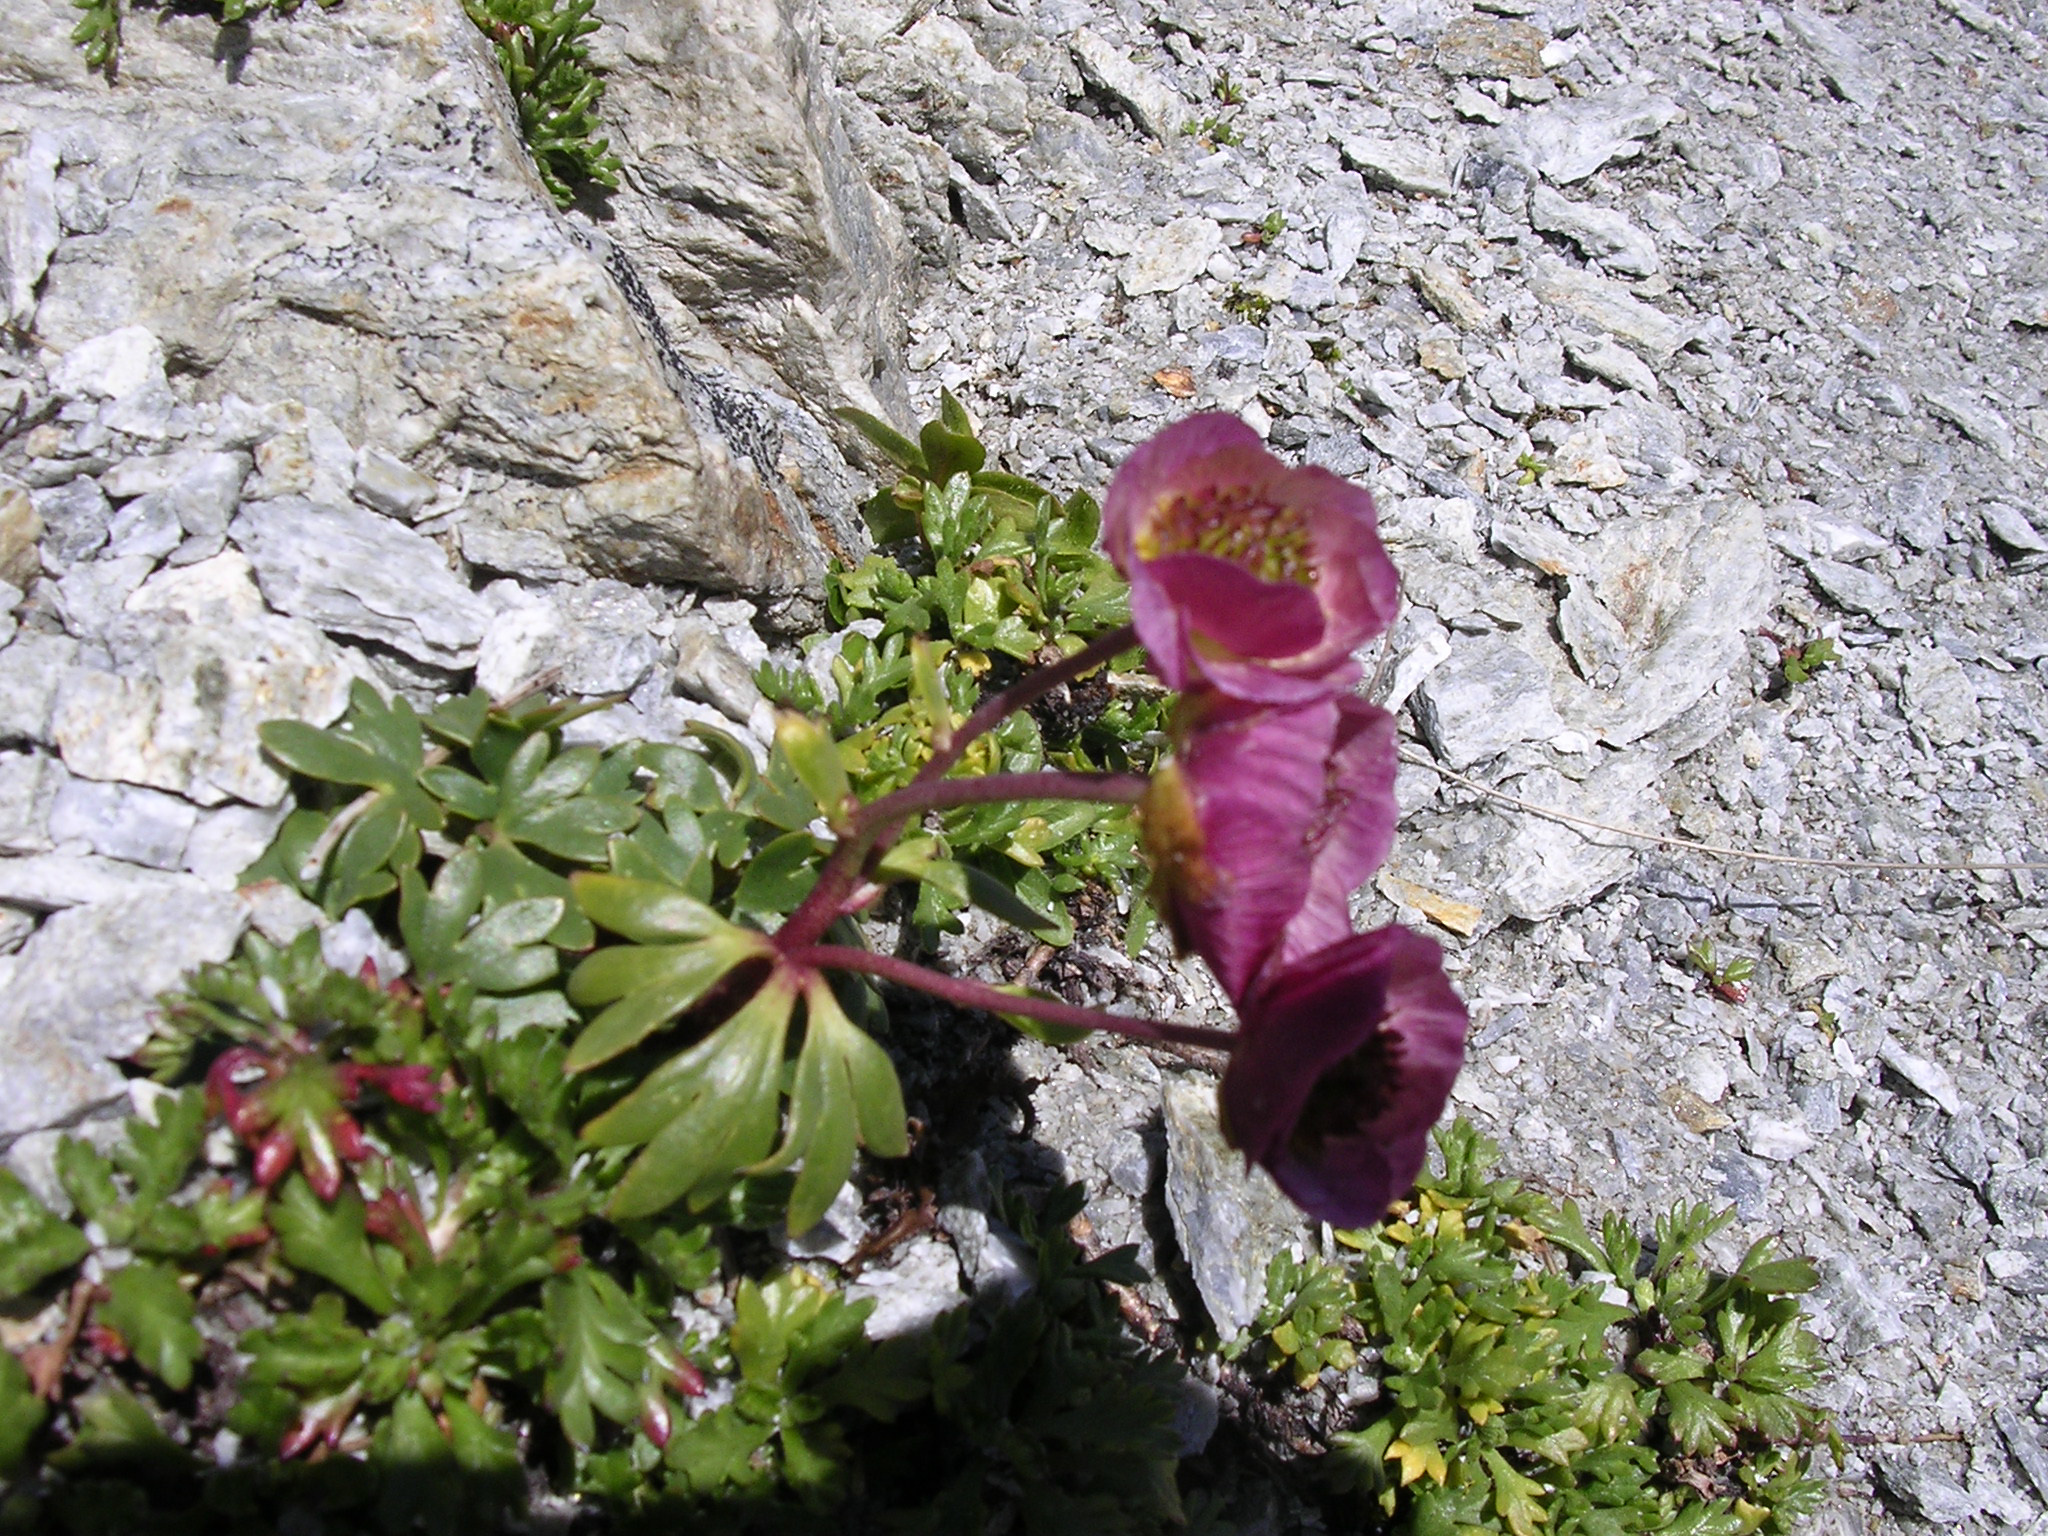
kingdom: Plantae
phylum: Tracheophyta
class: Magnoliopsida
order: Ranunculales
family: Ranunculaceae
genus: Ranunculus
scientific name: Ranunculus glacialis
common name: Glacier buttercup
